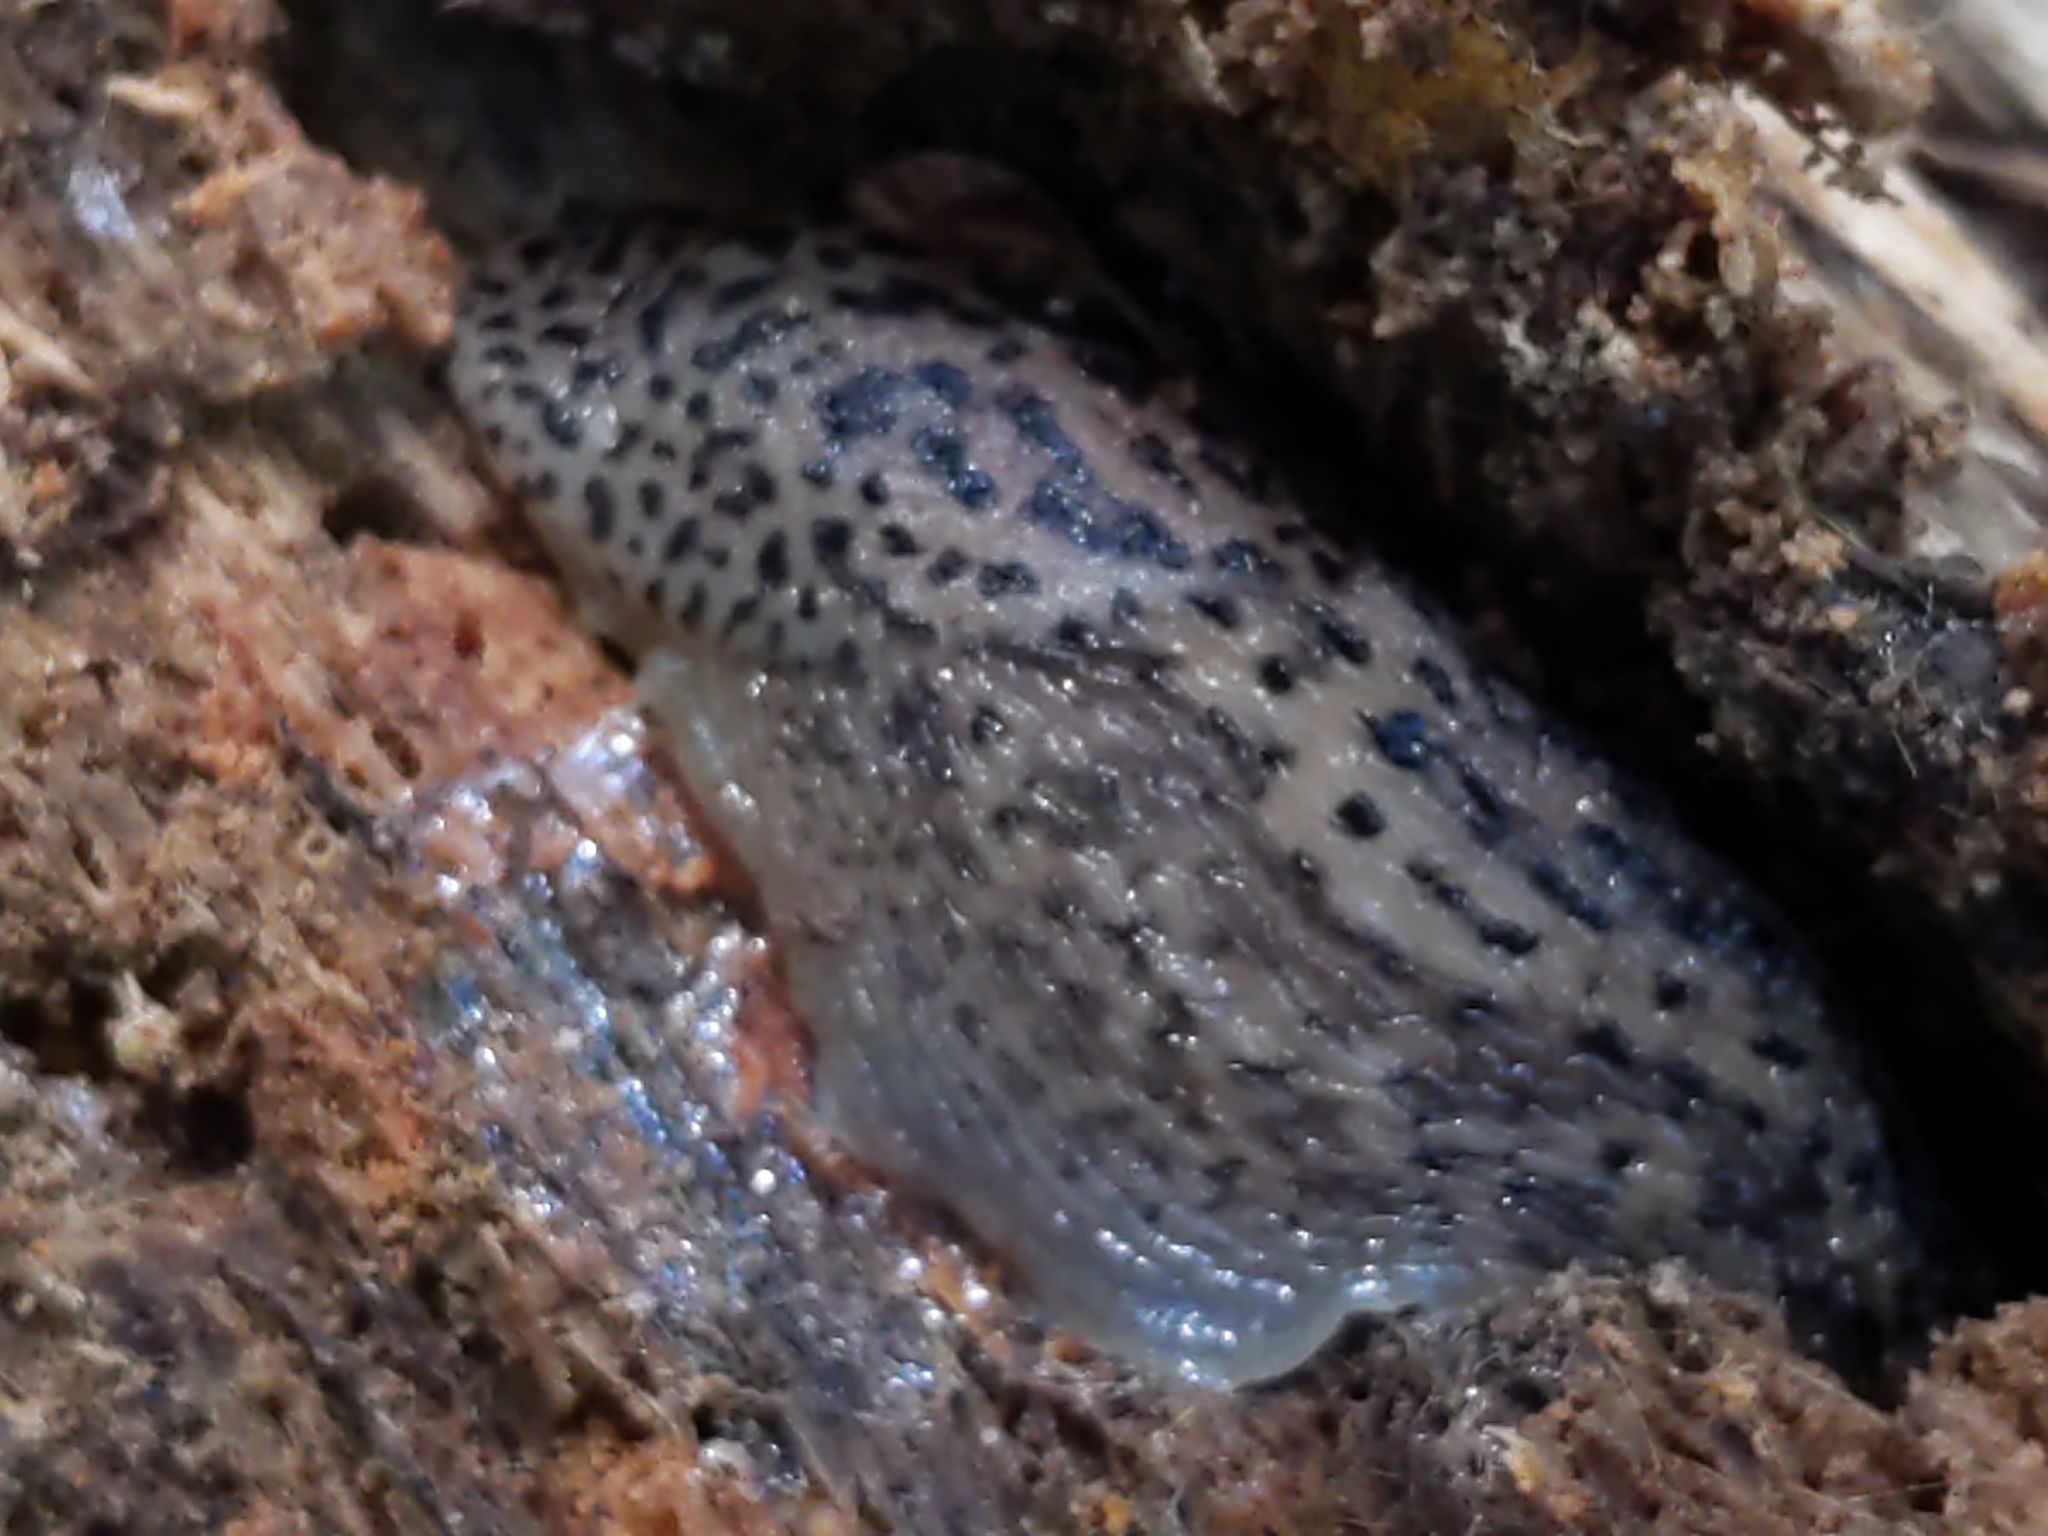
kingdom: Animalia
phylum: Mollusca
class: Gastropoda
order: Stylommatophora
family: Limacidae
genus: Limax
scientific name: Limax maximus
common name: Great grey slug
